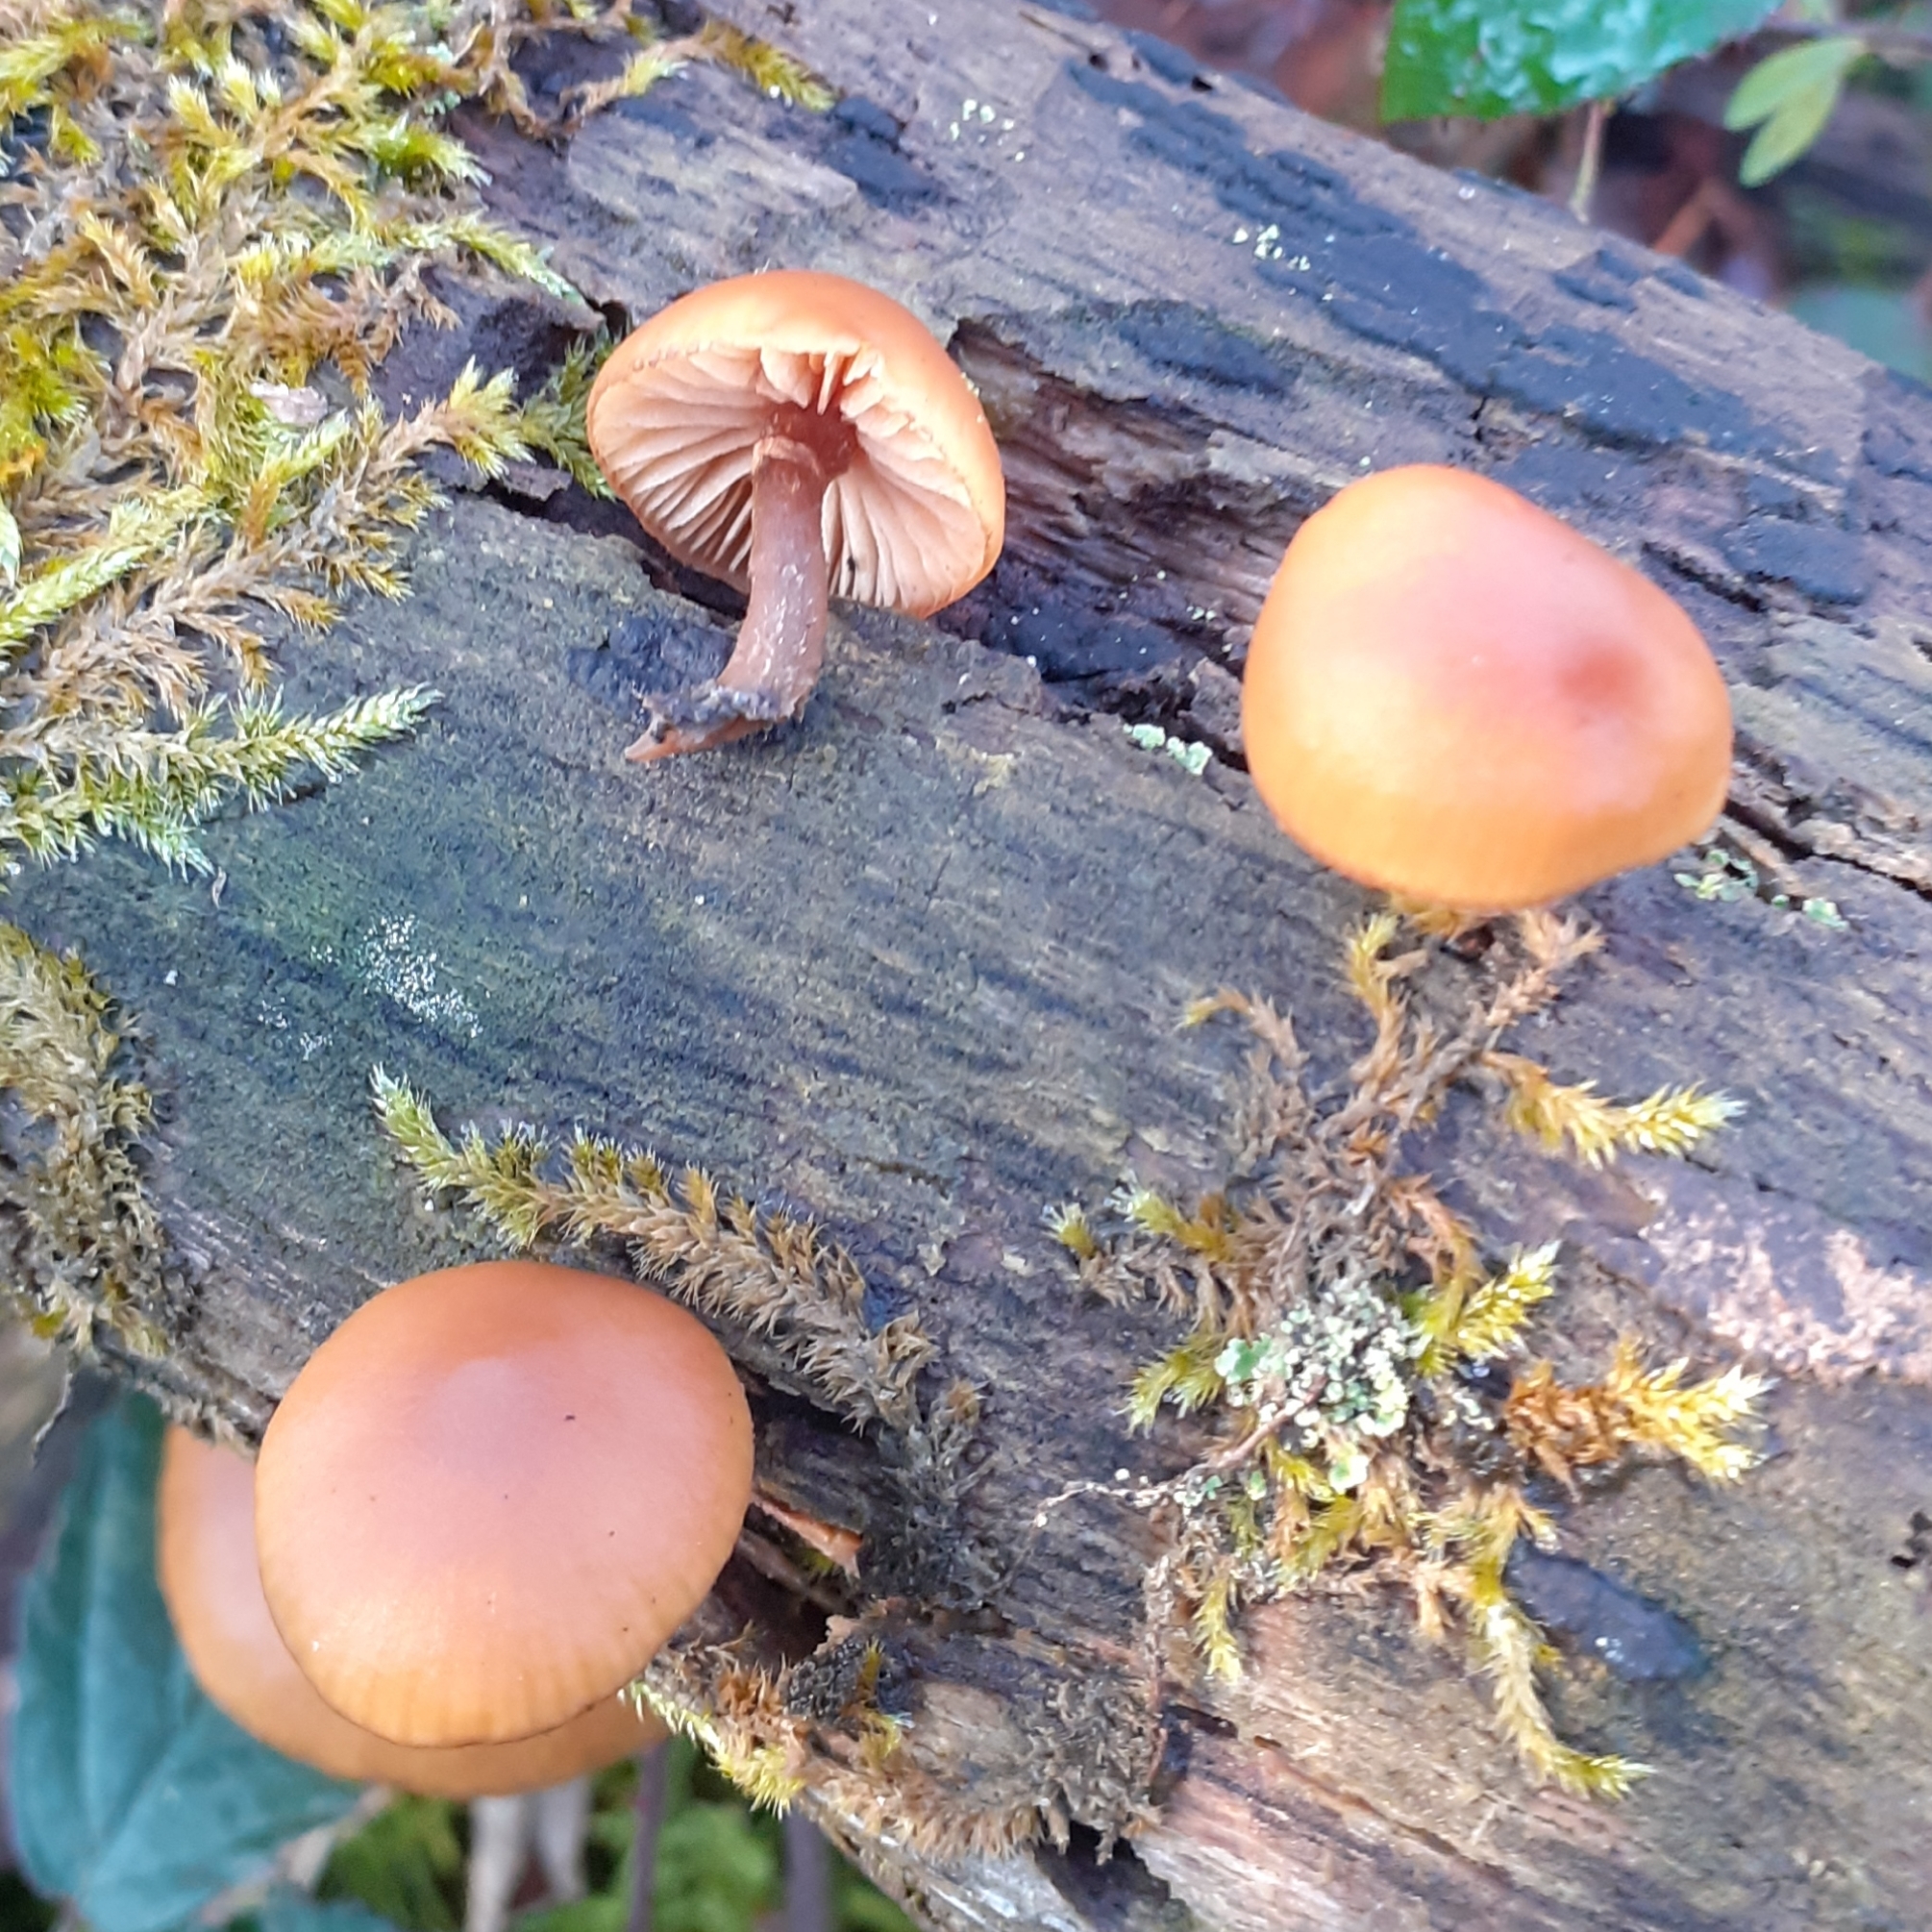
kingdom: Fungi
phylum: Basidiomycota
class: Agaricomycetes
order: Agaricales
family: Hymenogastraceae
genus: Galerina
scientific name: Galerina marginata
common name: Funeral bell
